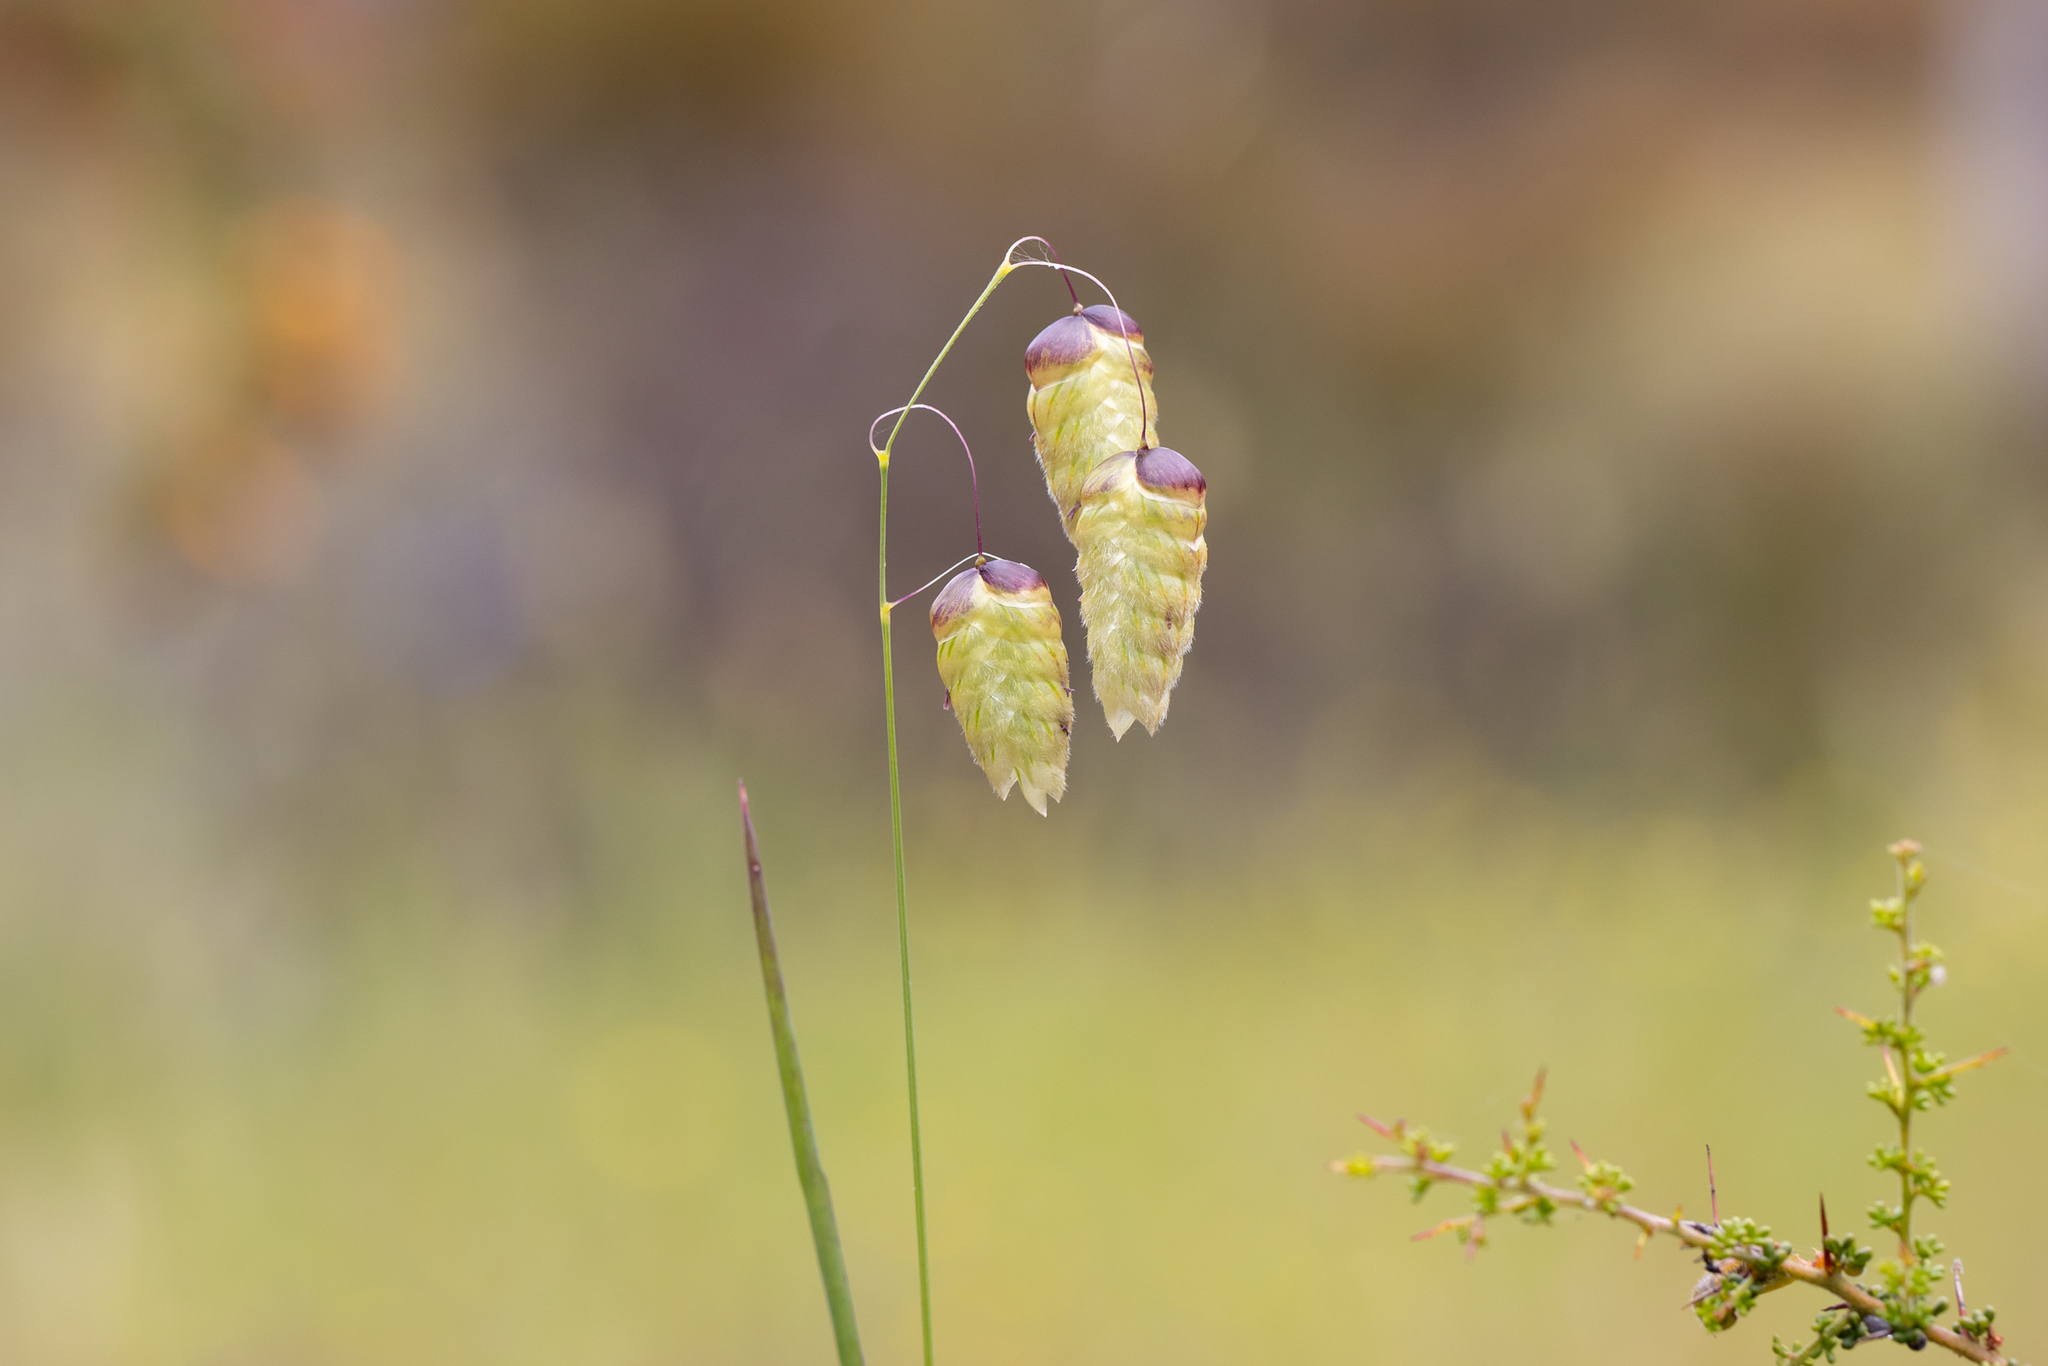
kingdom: Plantae
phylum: Tracheophyta
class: Liliopsida
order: Poales
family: Poaceae
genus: Briza
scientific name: Briza maxima
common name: Big quakinggrass
